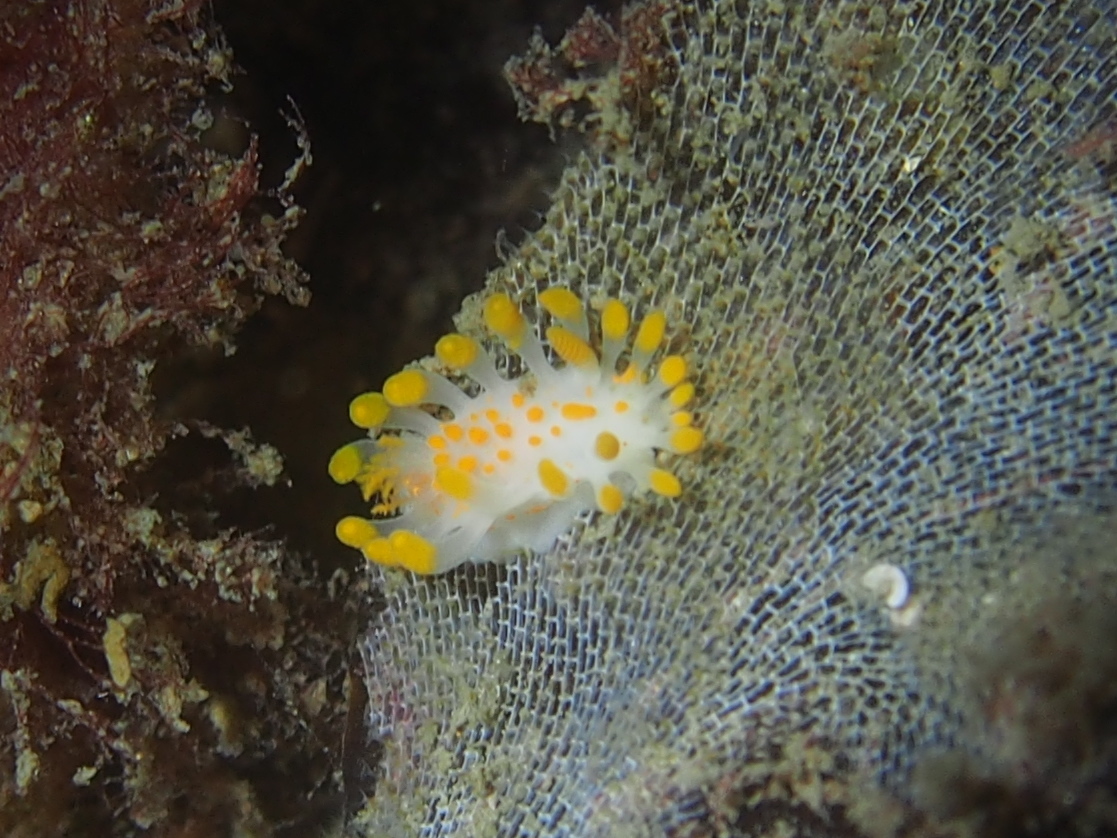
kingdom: Animalia
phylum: Mollusca
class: Gastropoda
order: Nudibranchia
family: Polyceridae
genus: Limacia
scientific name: Limacia clavigera
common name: Orange-clubbed sea slug
